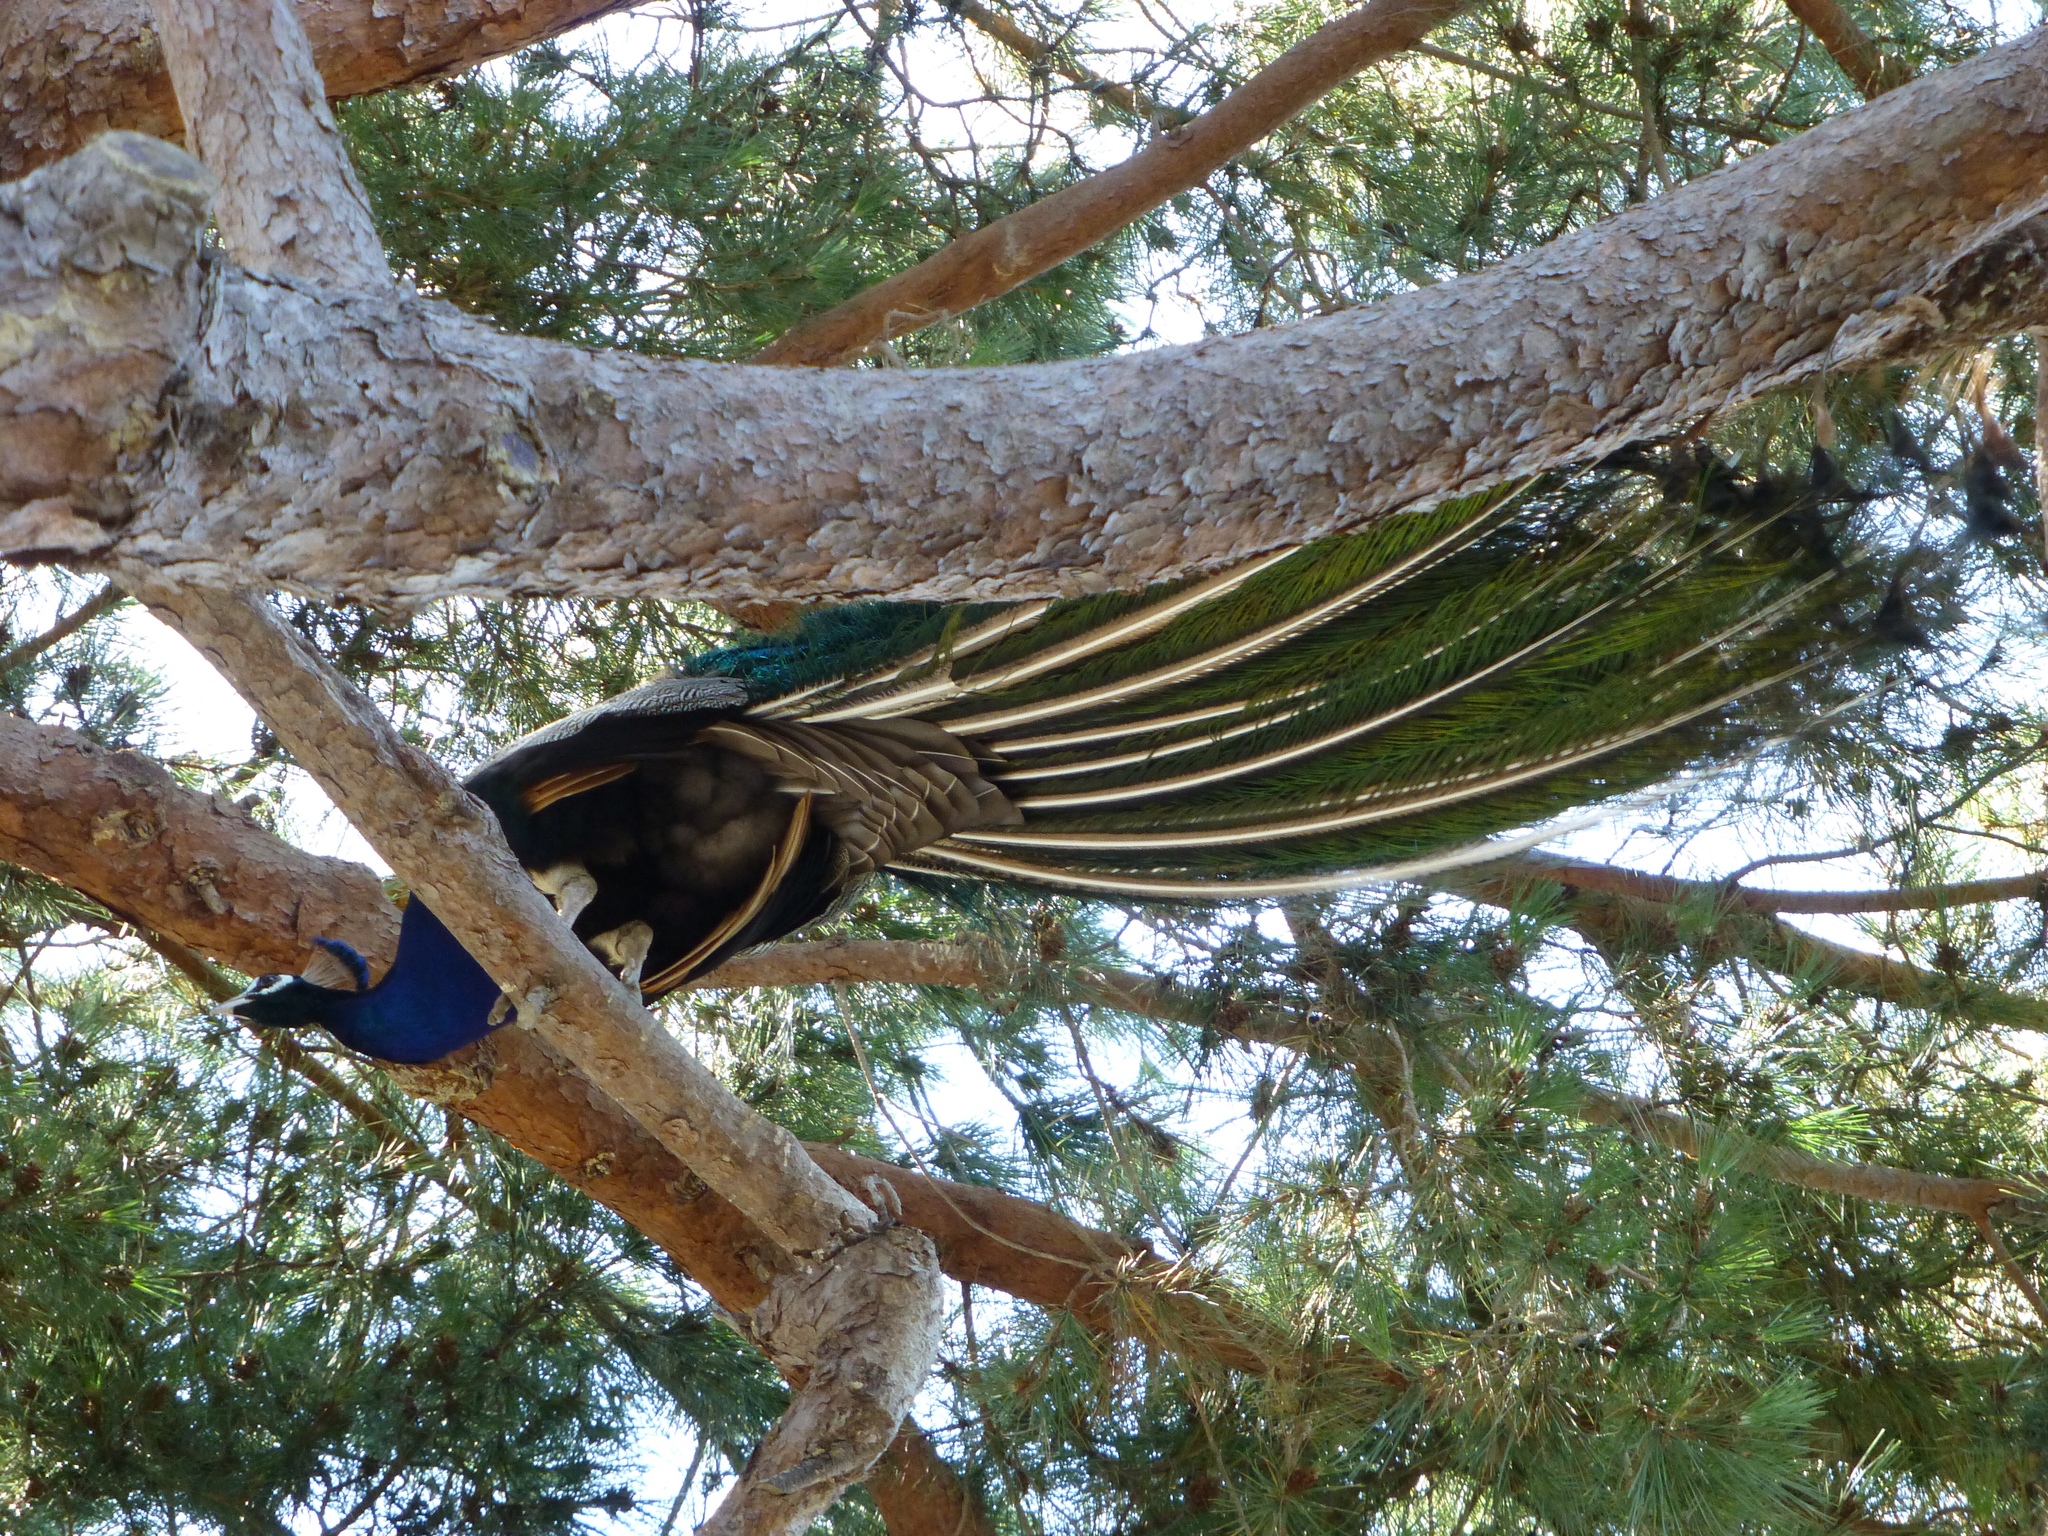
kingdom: Animalia
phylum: Chordata
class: Aves
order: Galliformes
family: Phasianidae
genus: Pavo
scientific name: Pavo cristatus
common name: Indian peafowl
